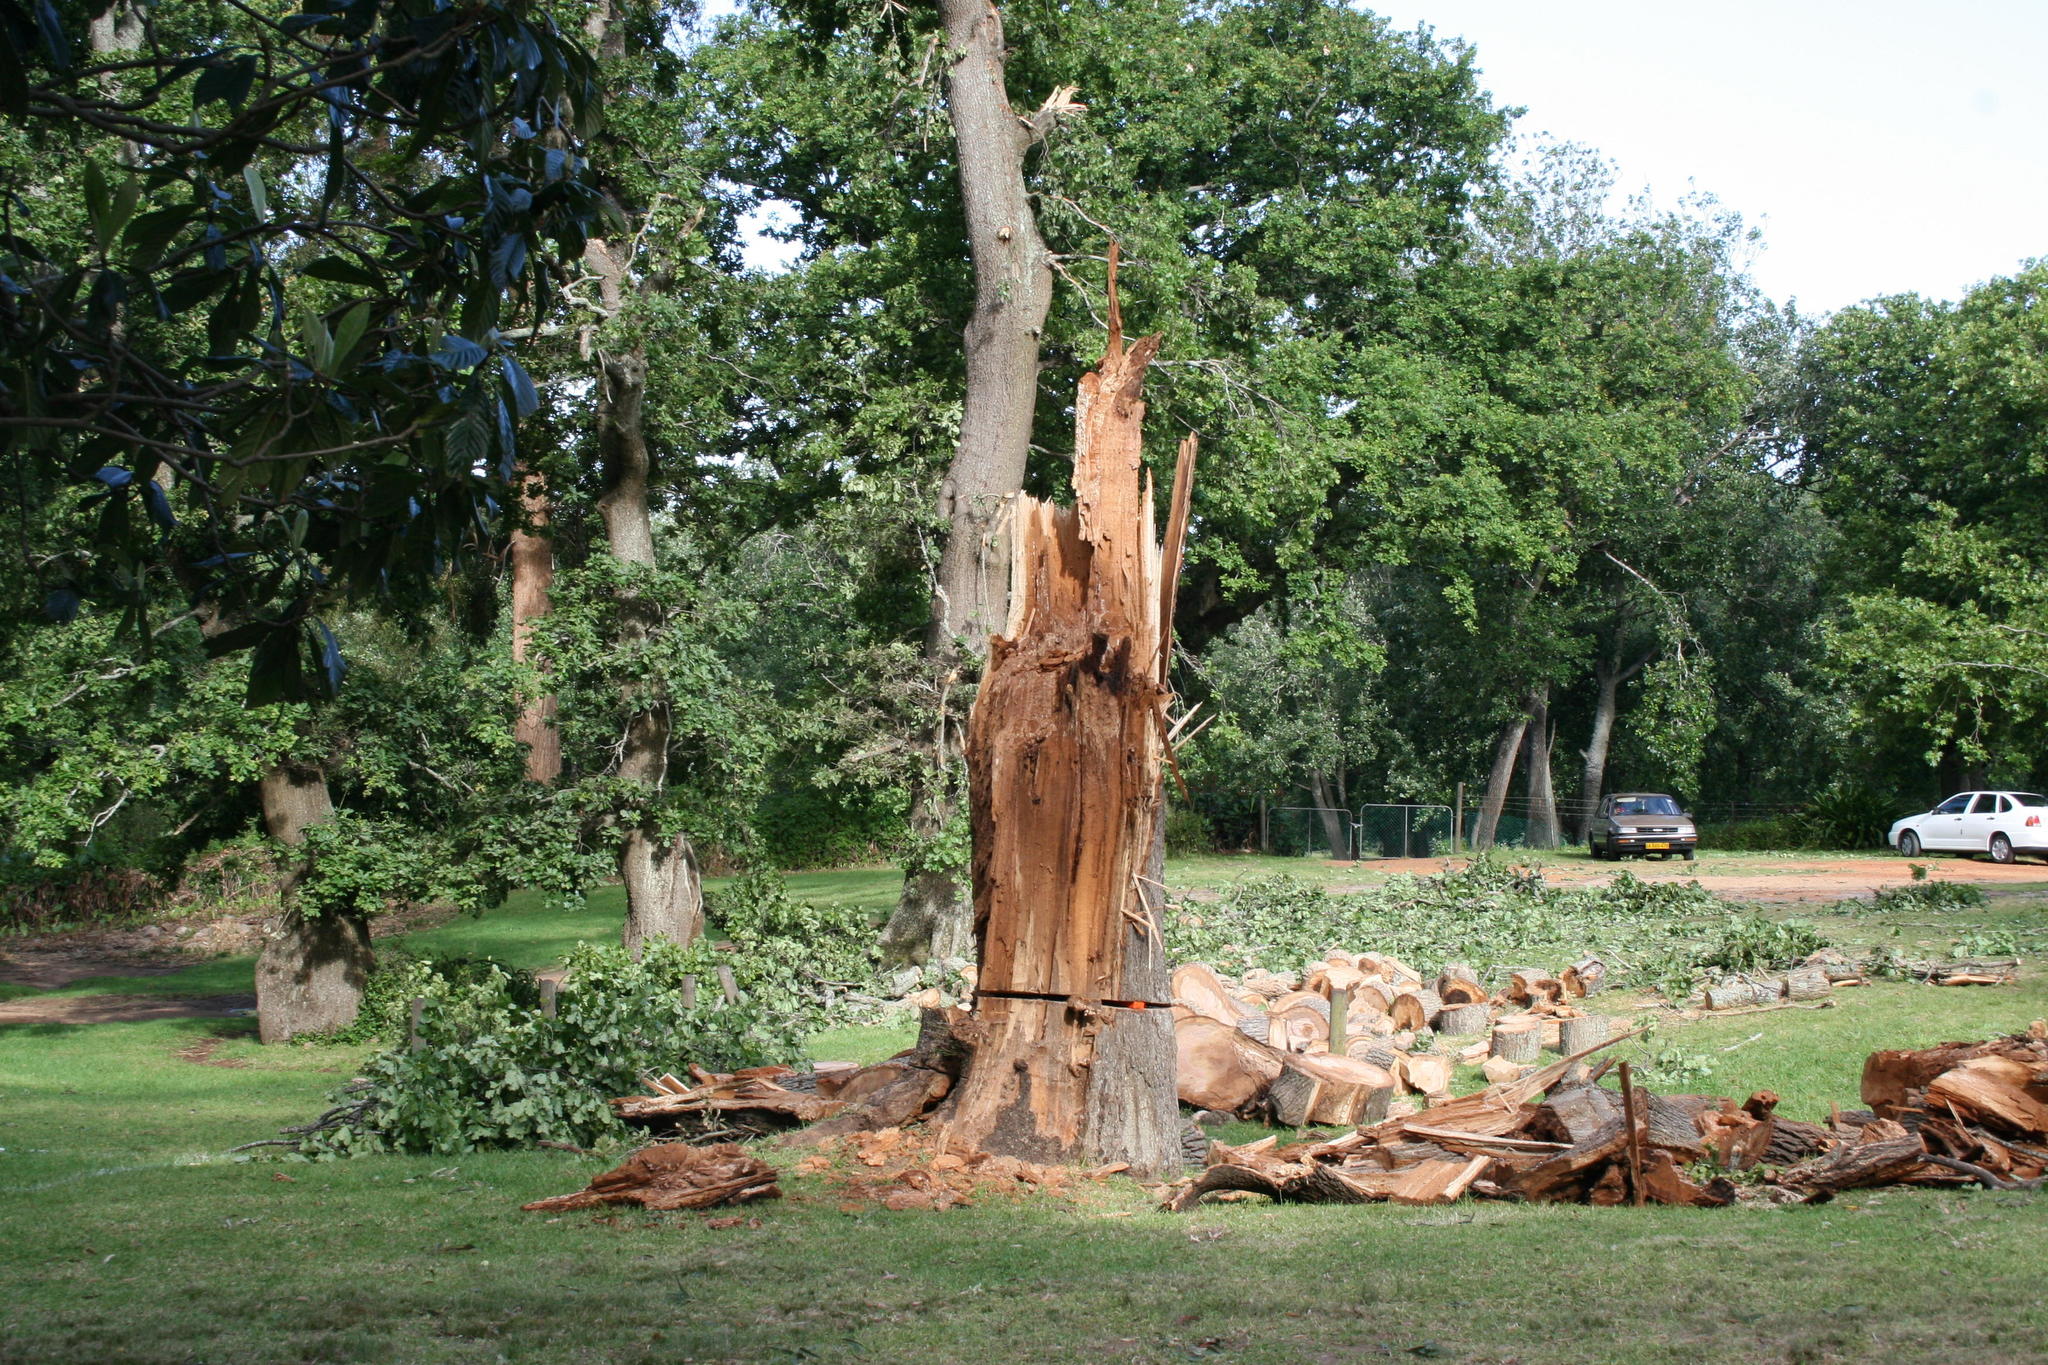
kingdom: Fungi
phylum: Basidiomycota
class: Agaricomycetes
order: Agaricales
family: Physalacriaceae
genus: Armillaria
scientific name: Armillaria mellea
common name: Honey fungus
